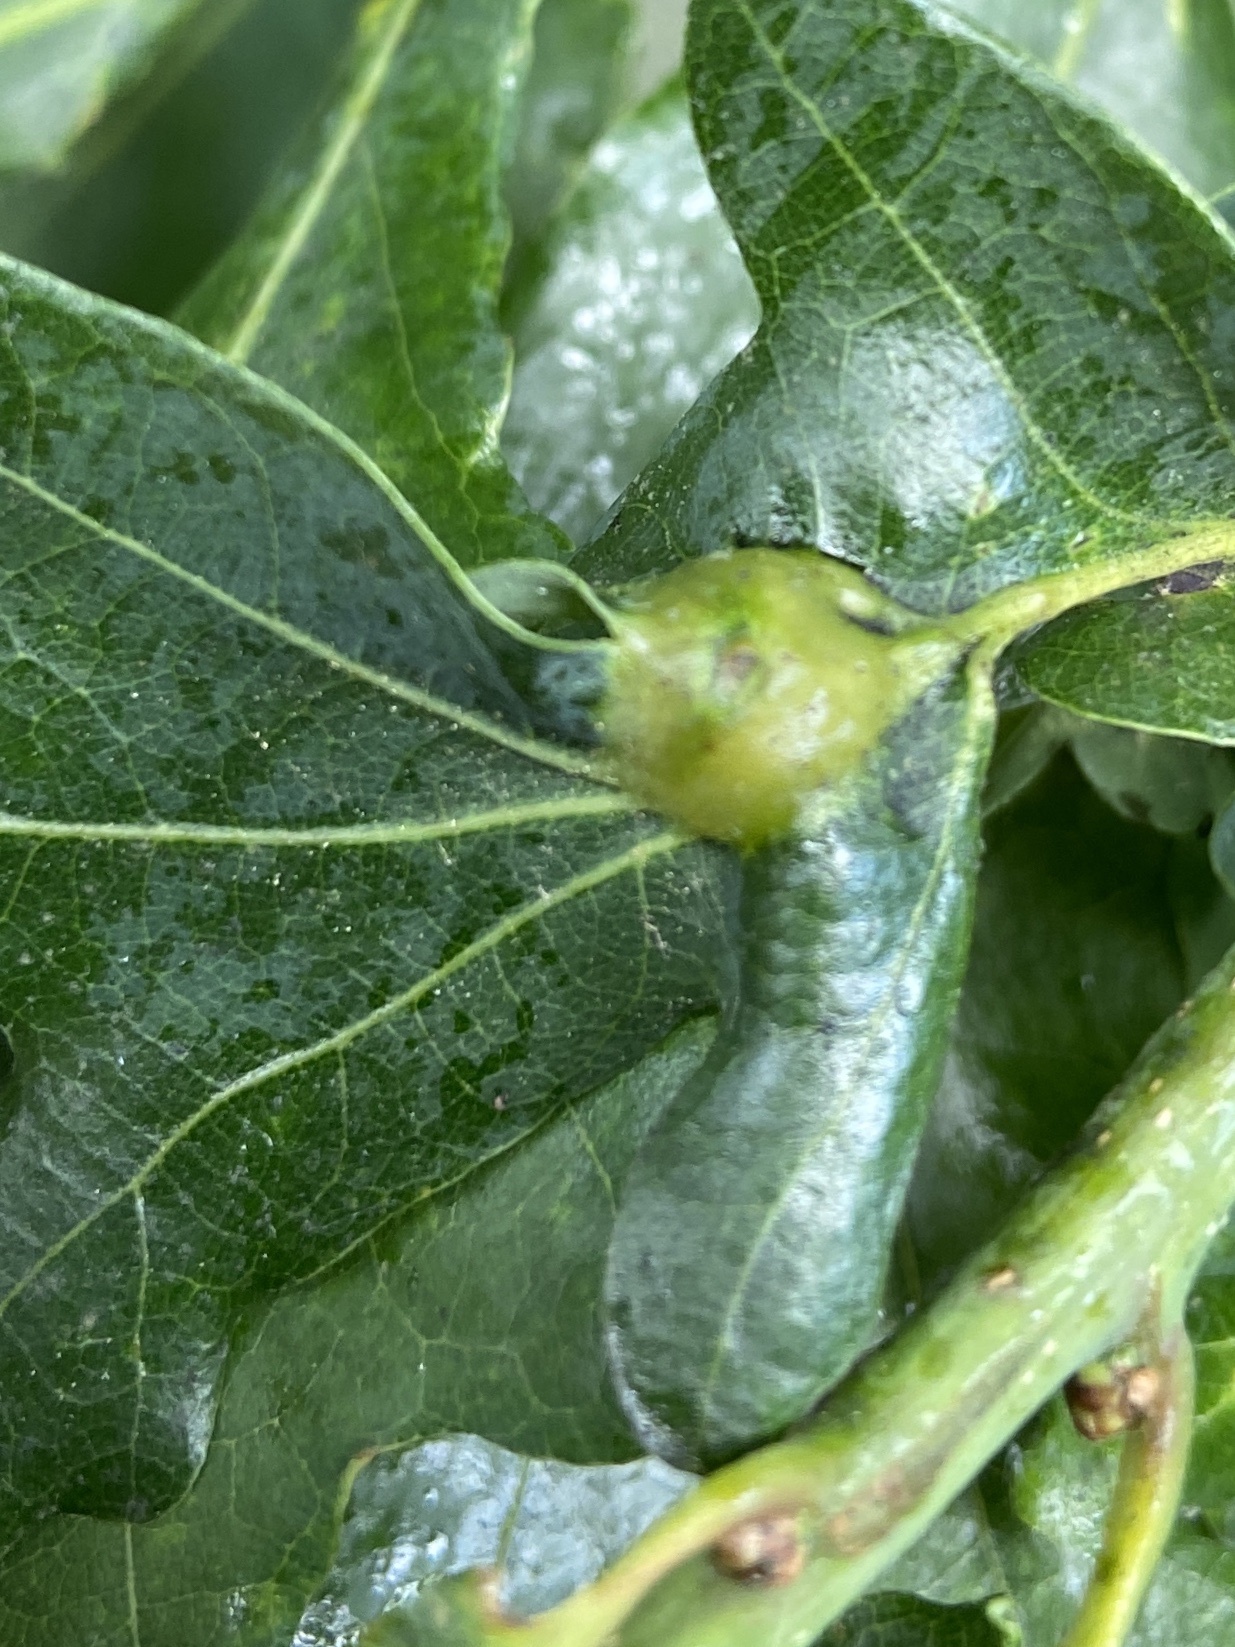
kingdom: Animalia
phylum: Arthropoda
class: Insecta
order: Hymenoptera
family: Cynipidae
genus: Andricus
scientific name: Andricus curvator
